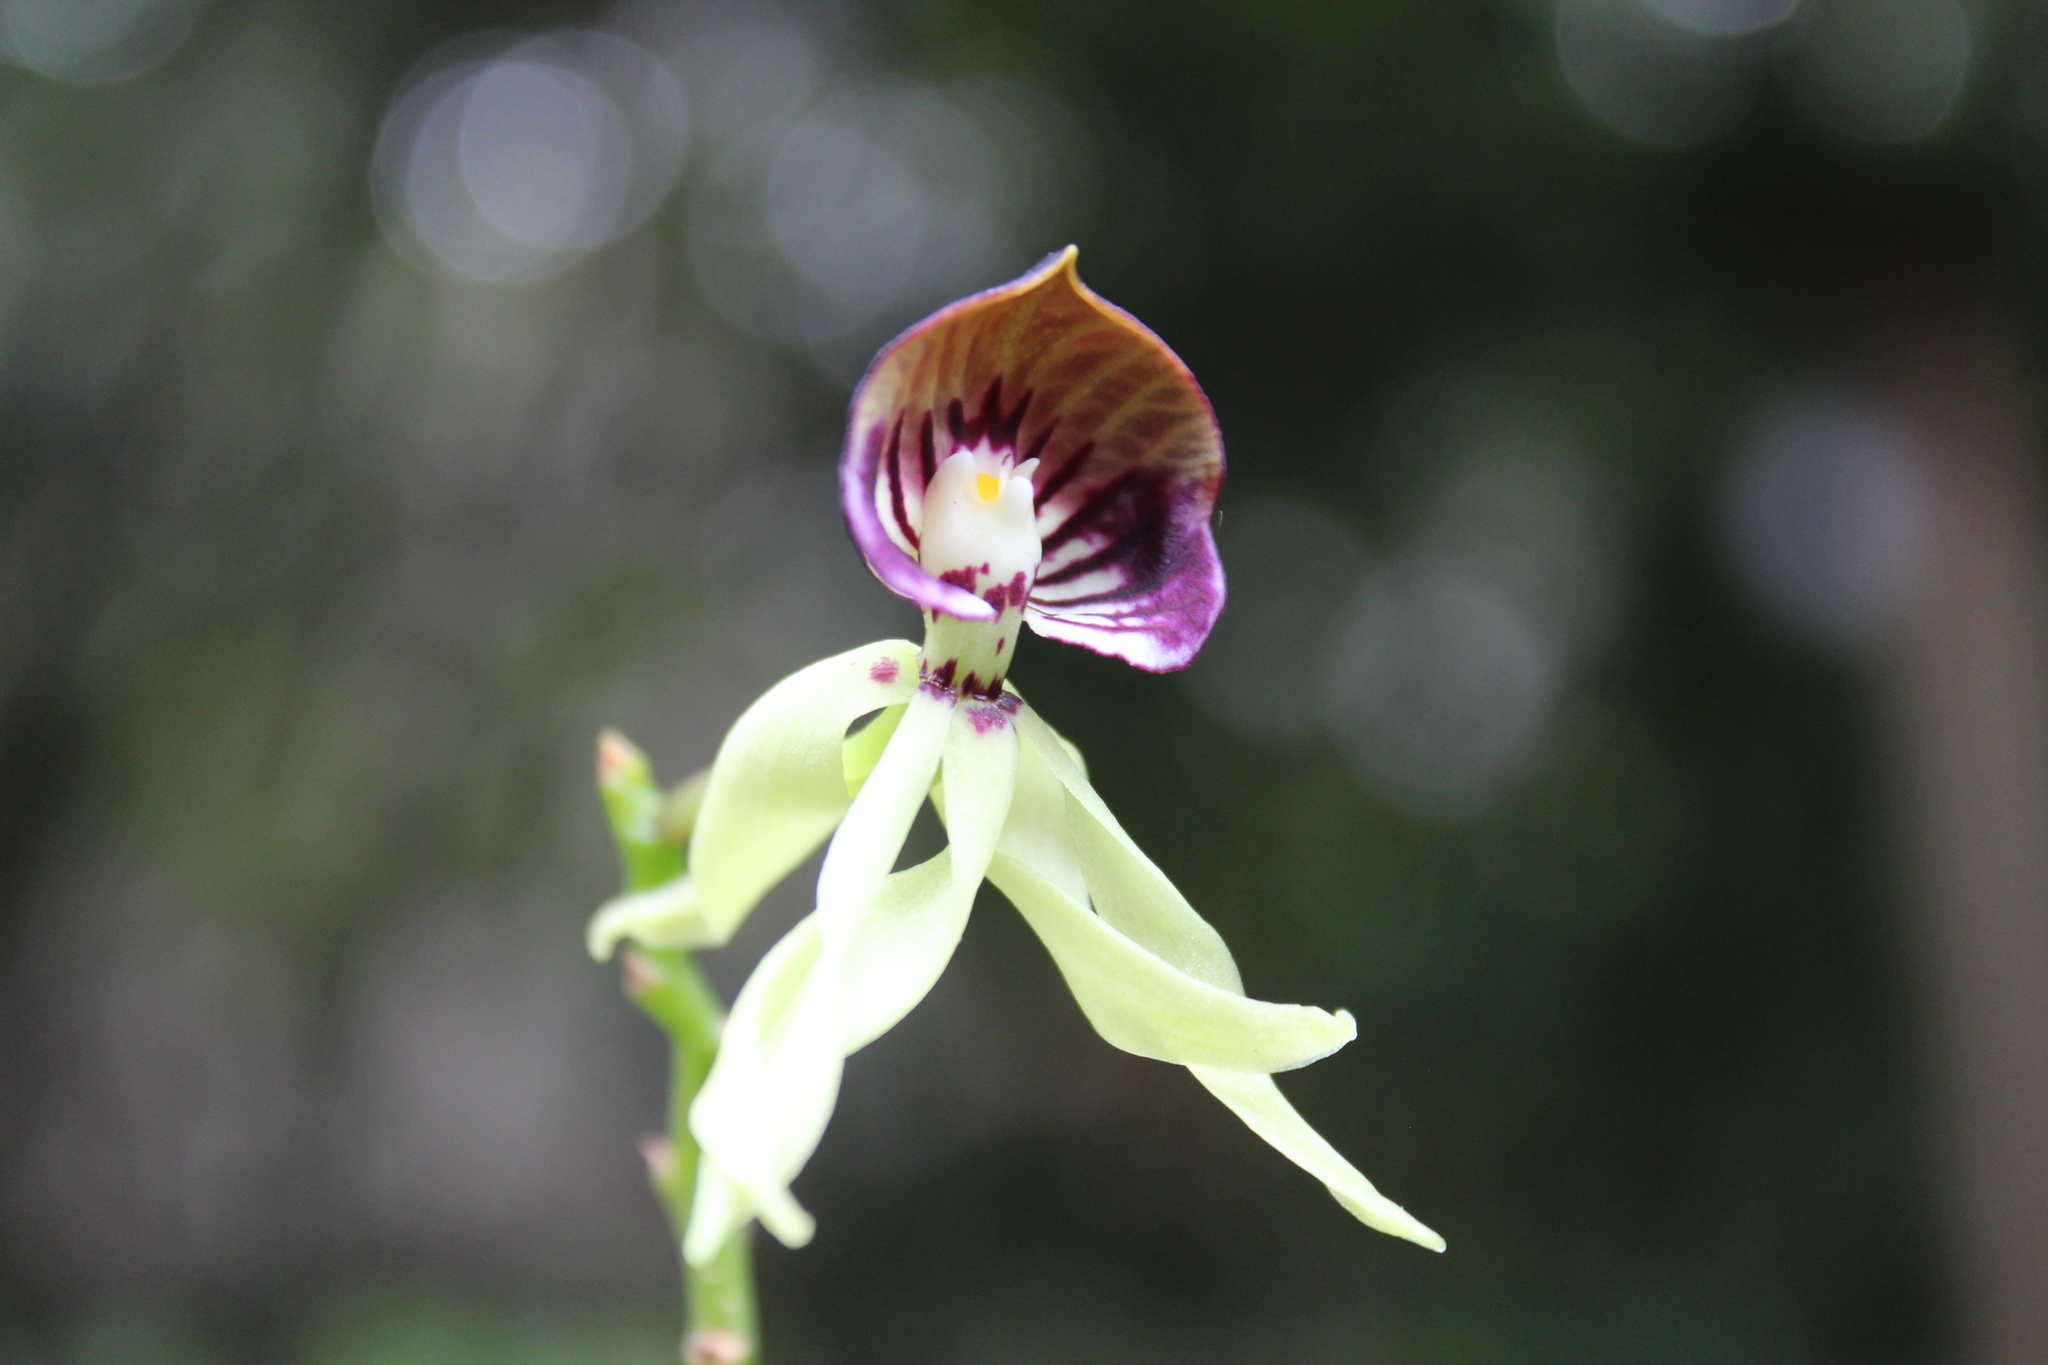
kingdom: Plantae
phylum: Tracheophyta
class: Liliopsida
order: Asparagales
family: Orchidaceae
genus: Prosthechea
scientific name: Prosthechea cochleata
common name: Clamshell orchid
